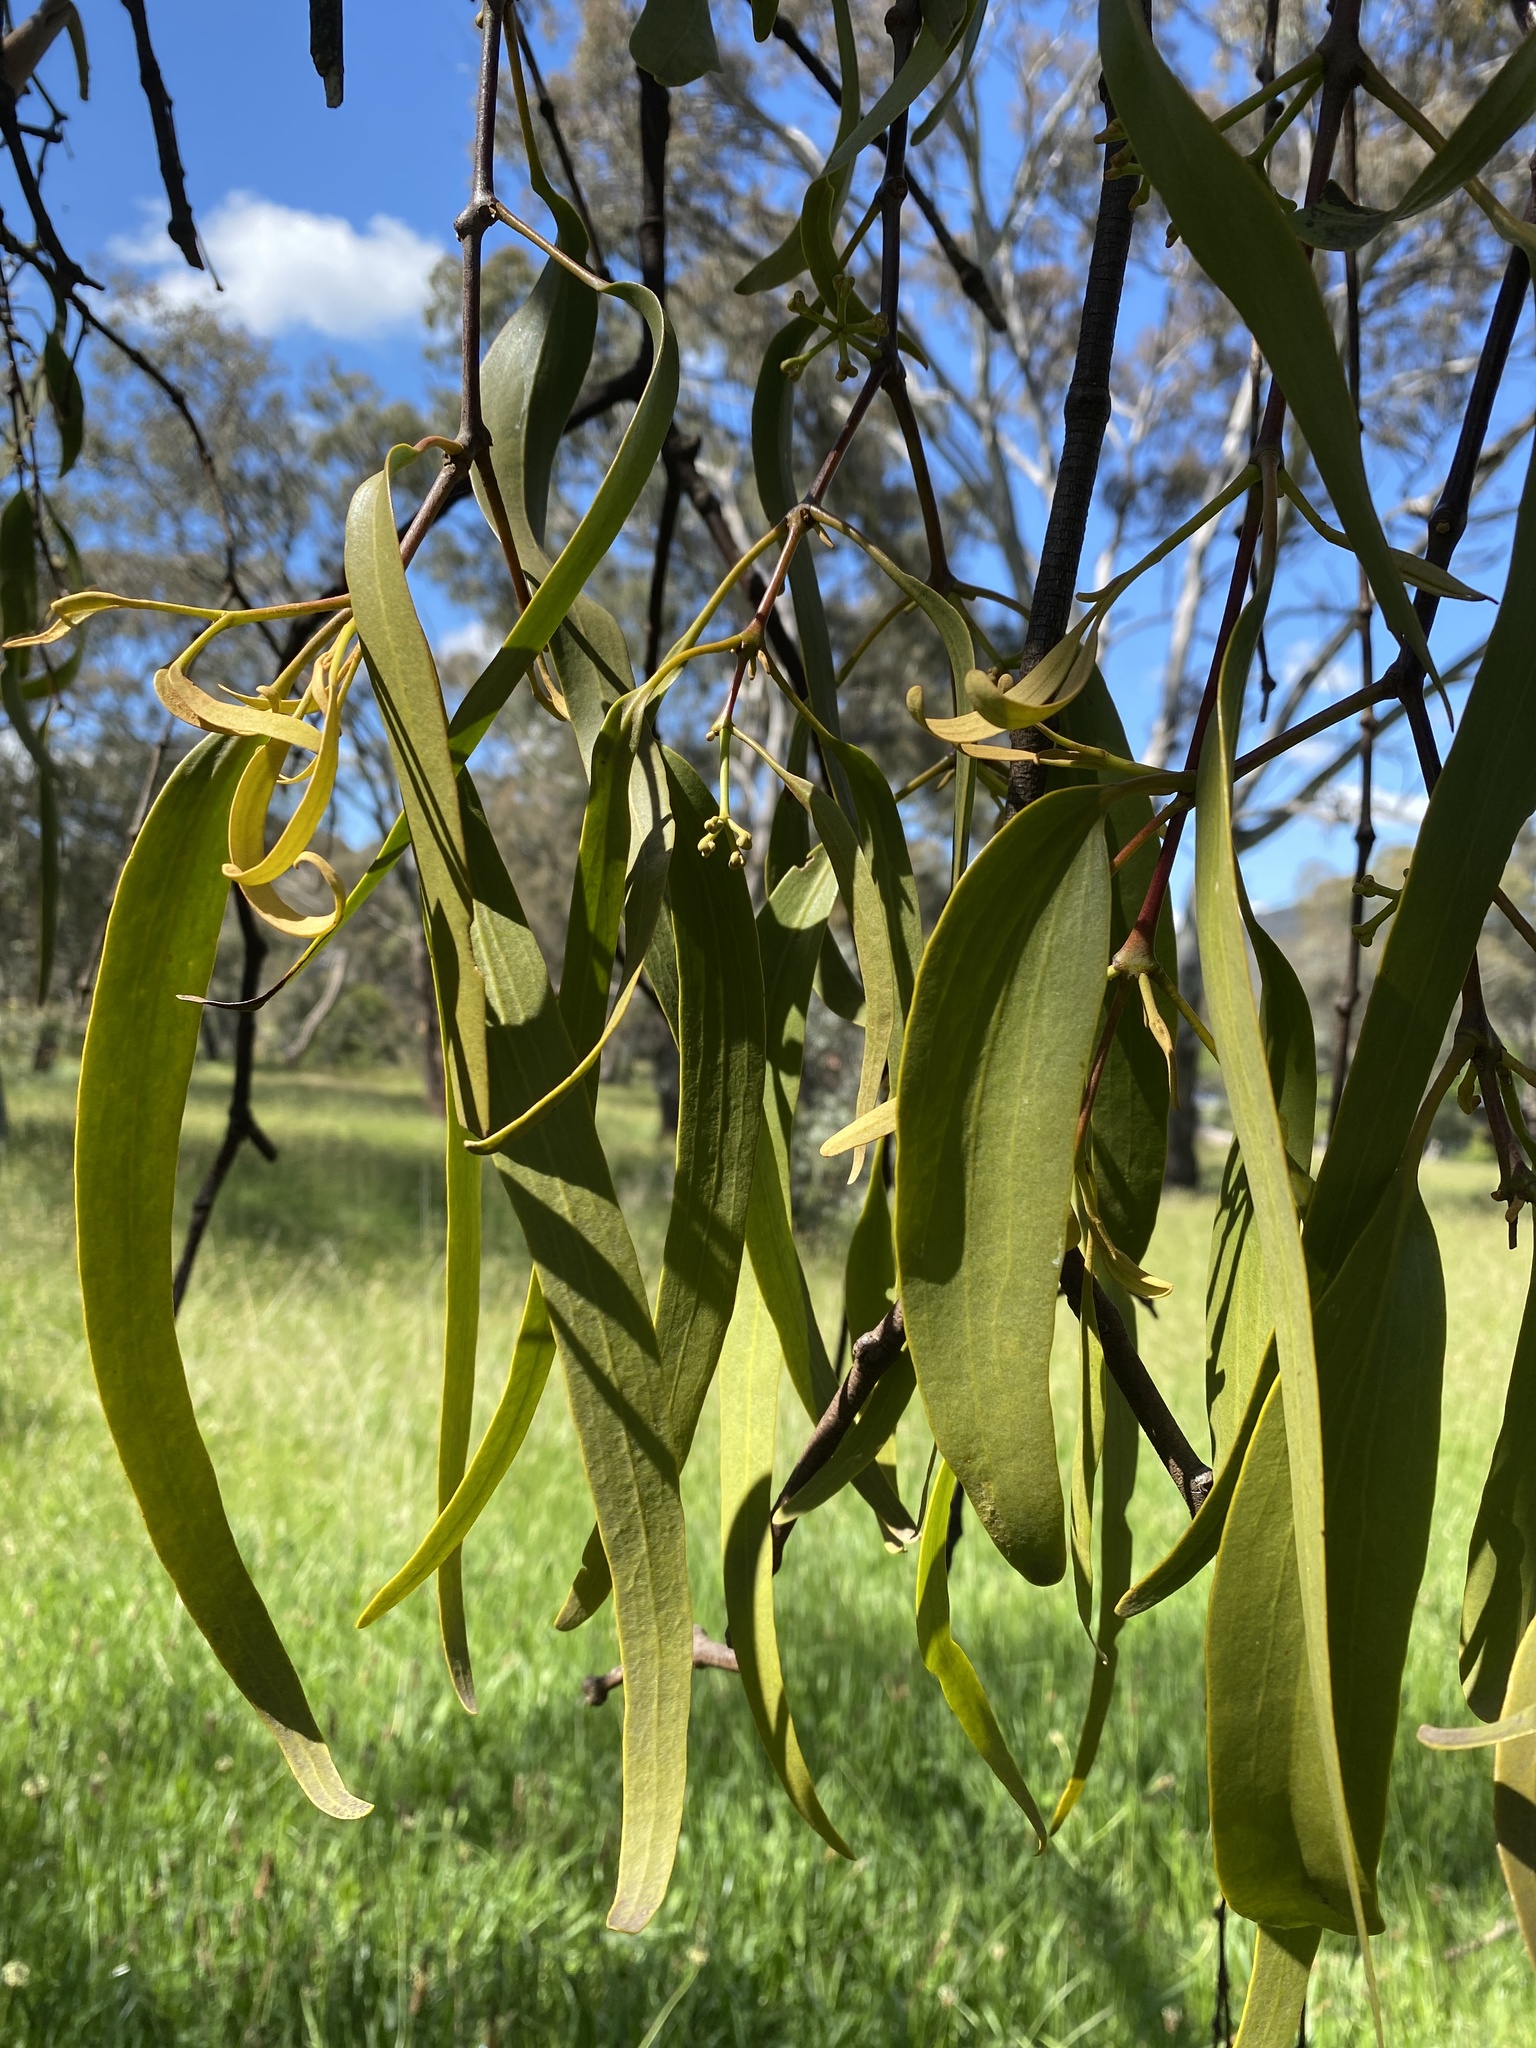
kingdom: Plantae
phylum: Tracheophyta
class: Magnoliopsida
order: Santalales
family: Loranthaceae
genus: Amyema
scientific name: Amyema miquelii
